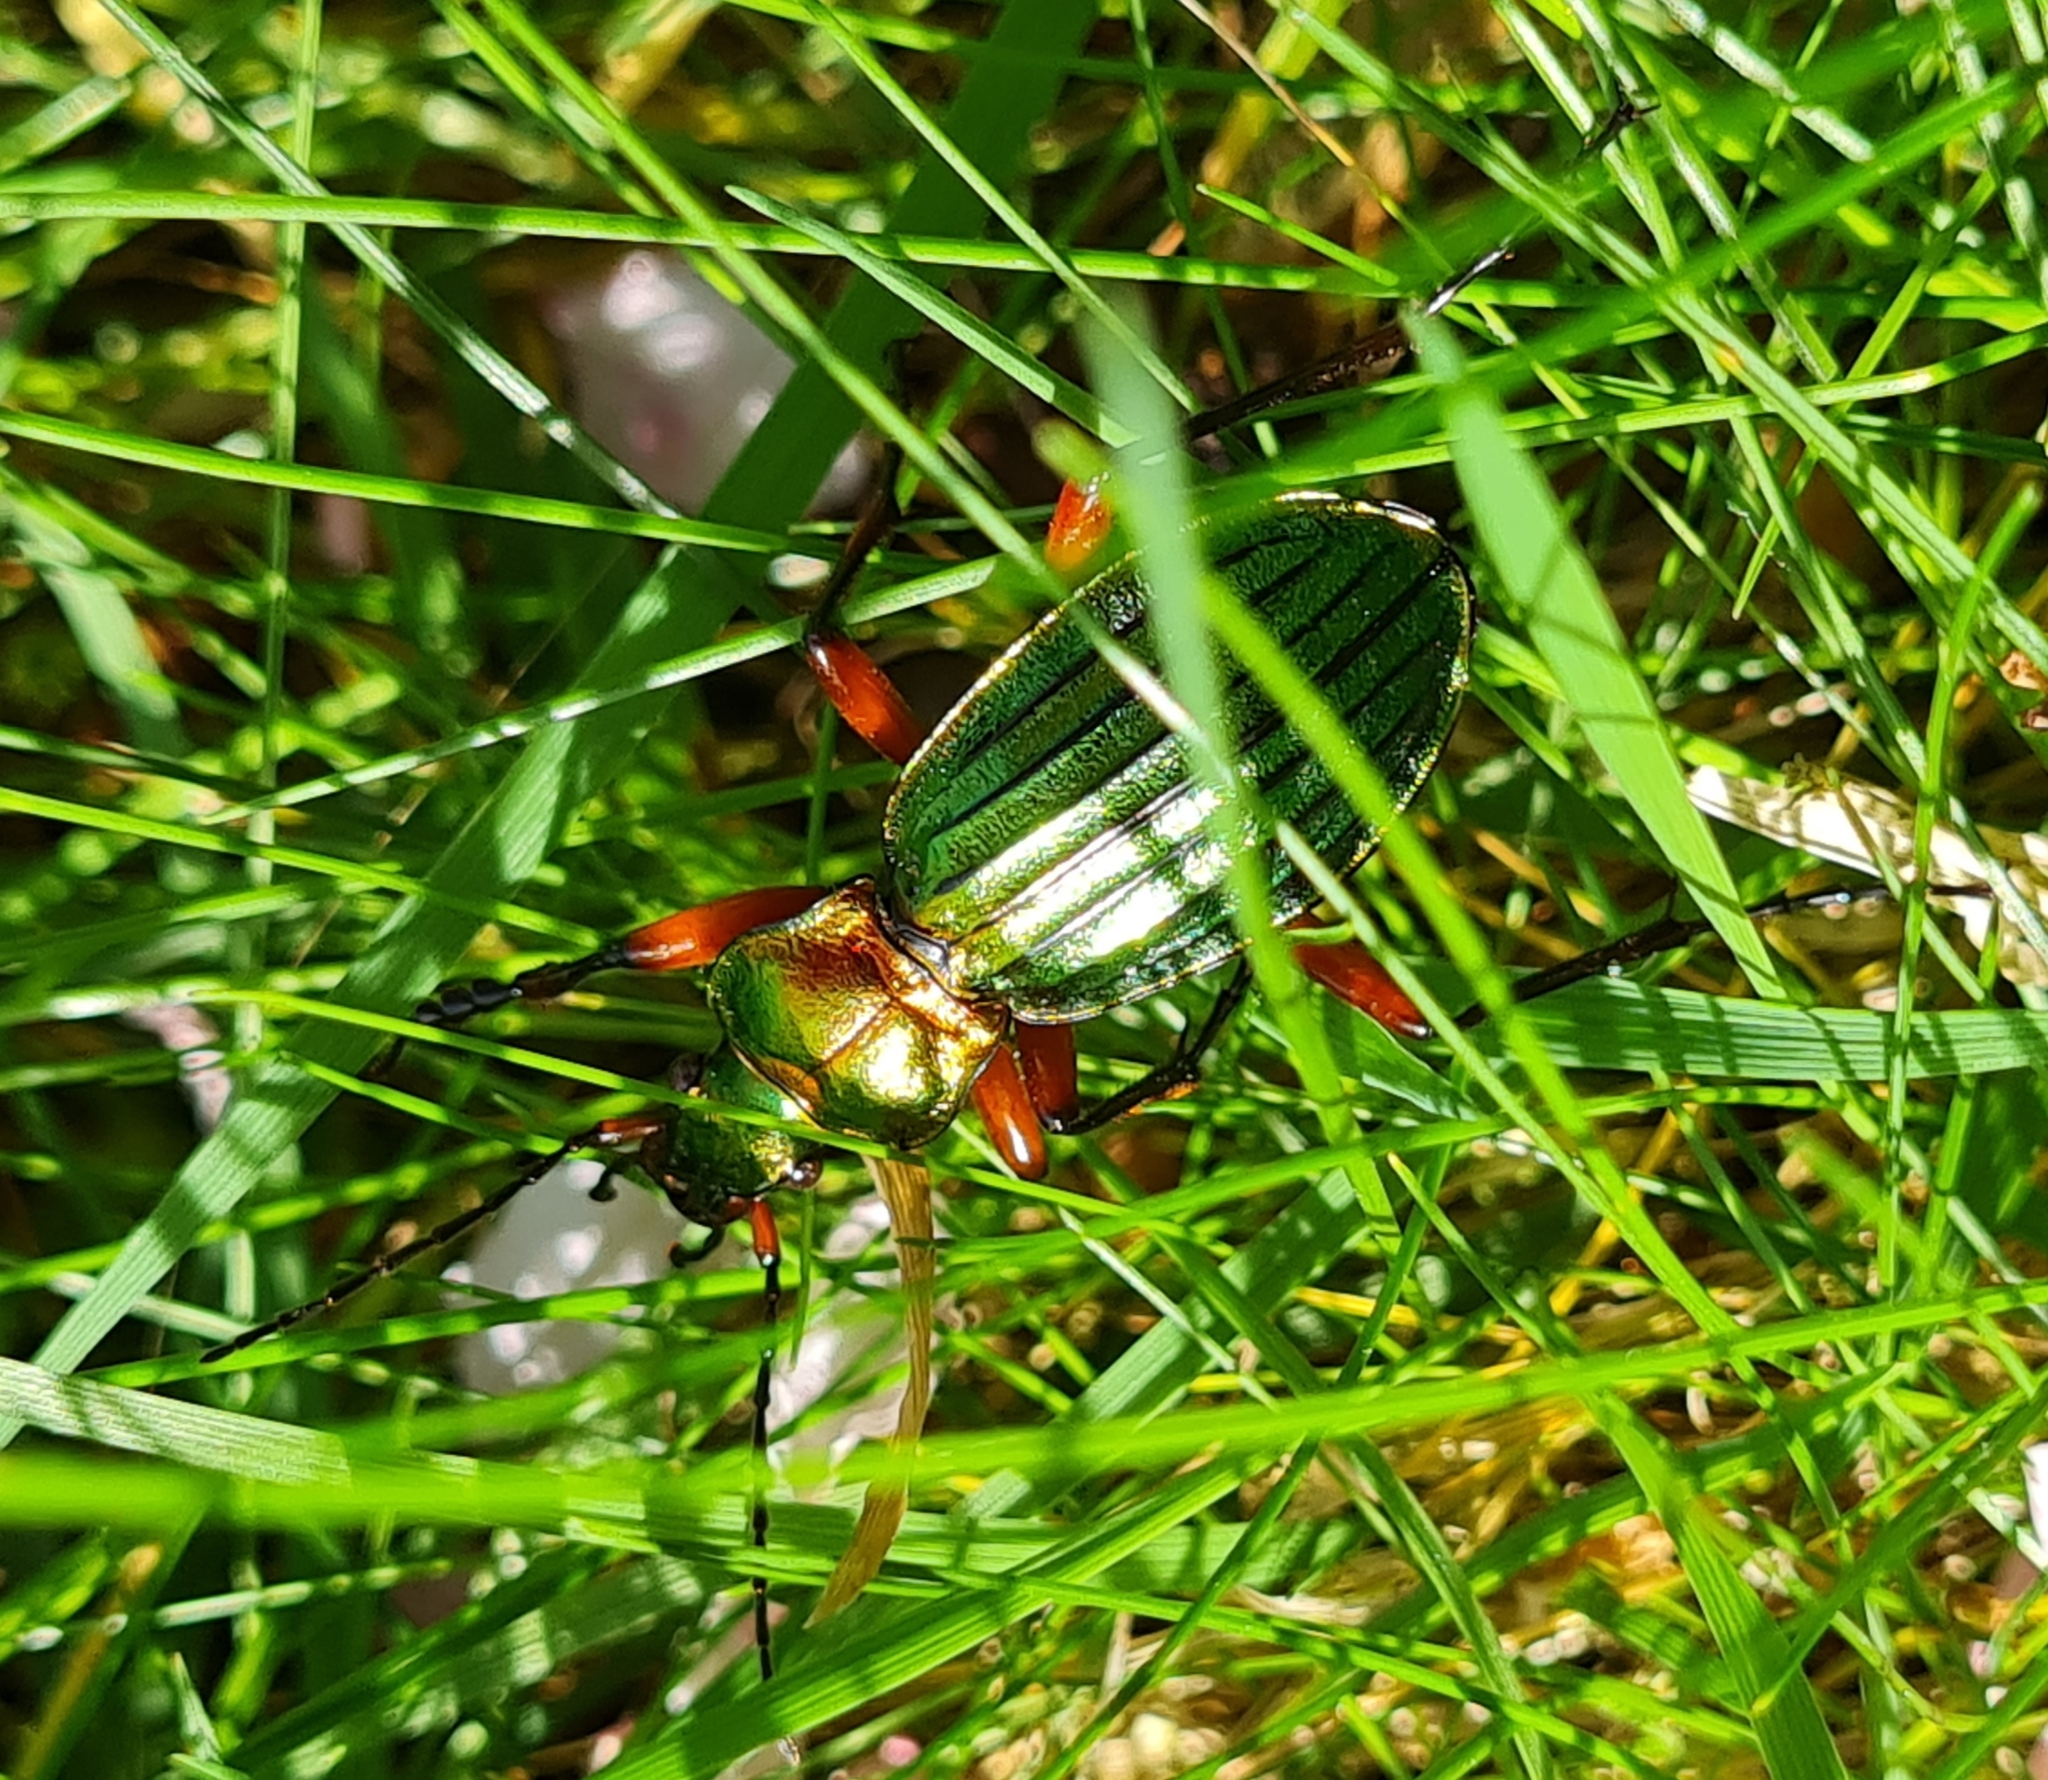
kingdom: Animalia
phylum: Arthropoda
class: Insecta
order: Coleoptera
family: Carabidae
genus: Carabus
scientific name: Carabus auronitens
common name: Carabus auronitens
